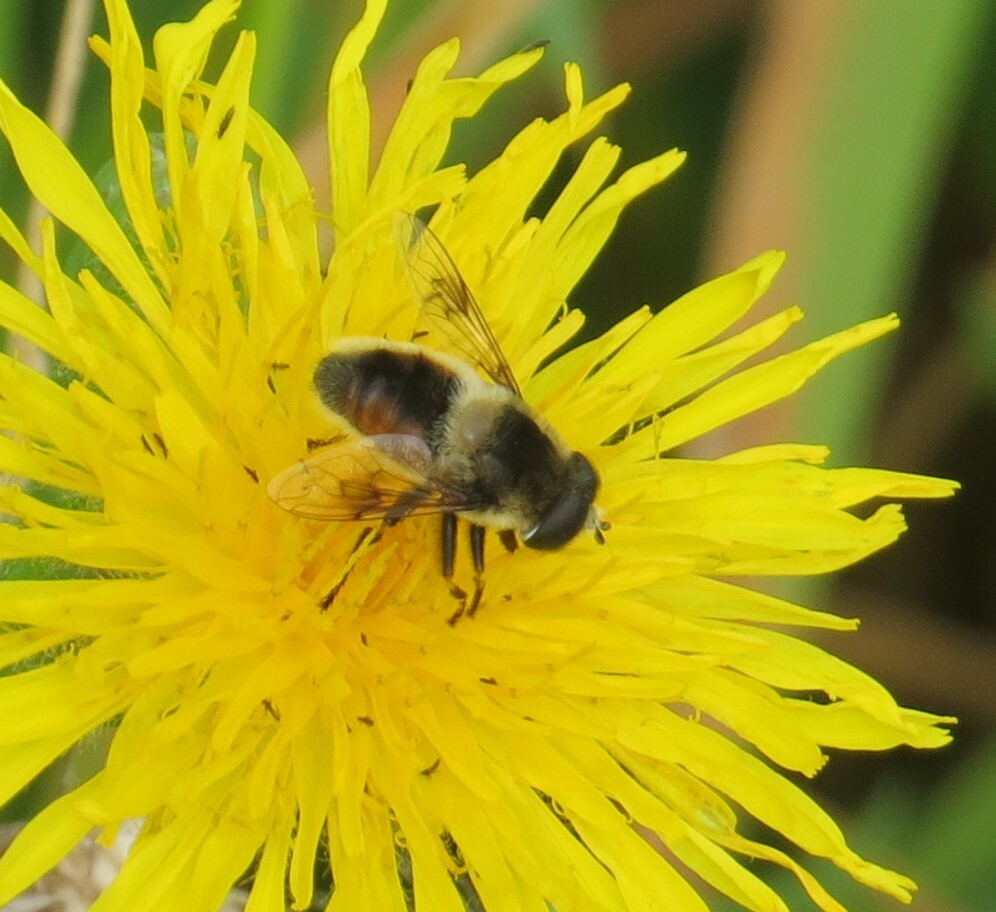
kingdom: Animalia
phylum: Arthropoda
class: Insecta
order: Diptera
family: Syrphidae
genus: Eristalis
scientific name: Eristalis anthophorina
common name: Orange-spotted drone fly
